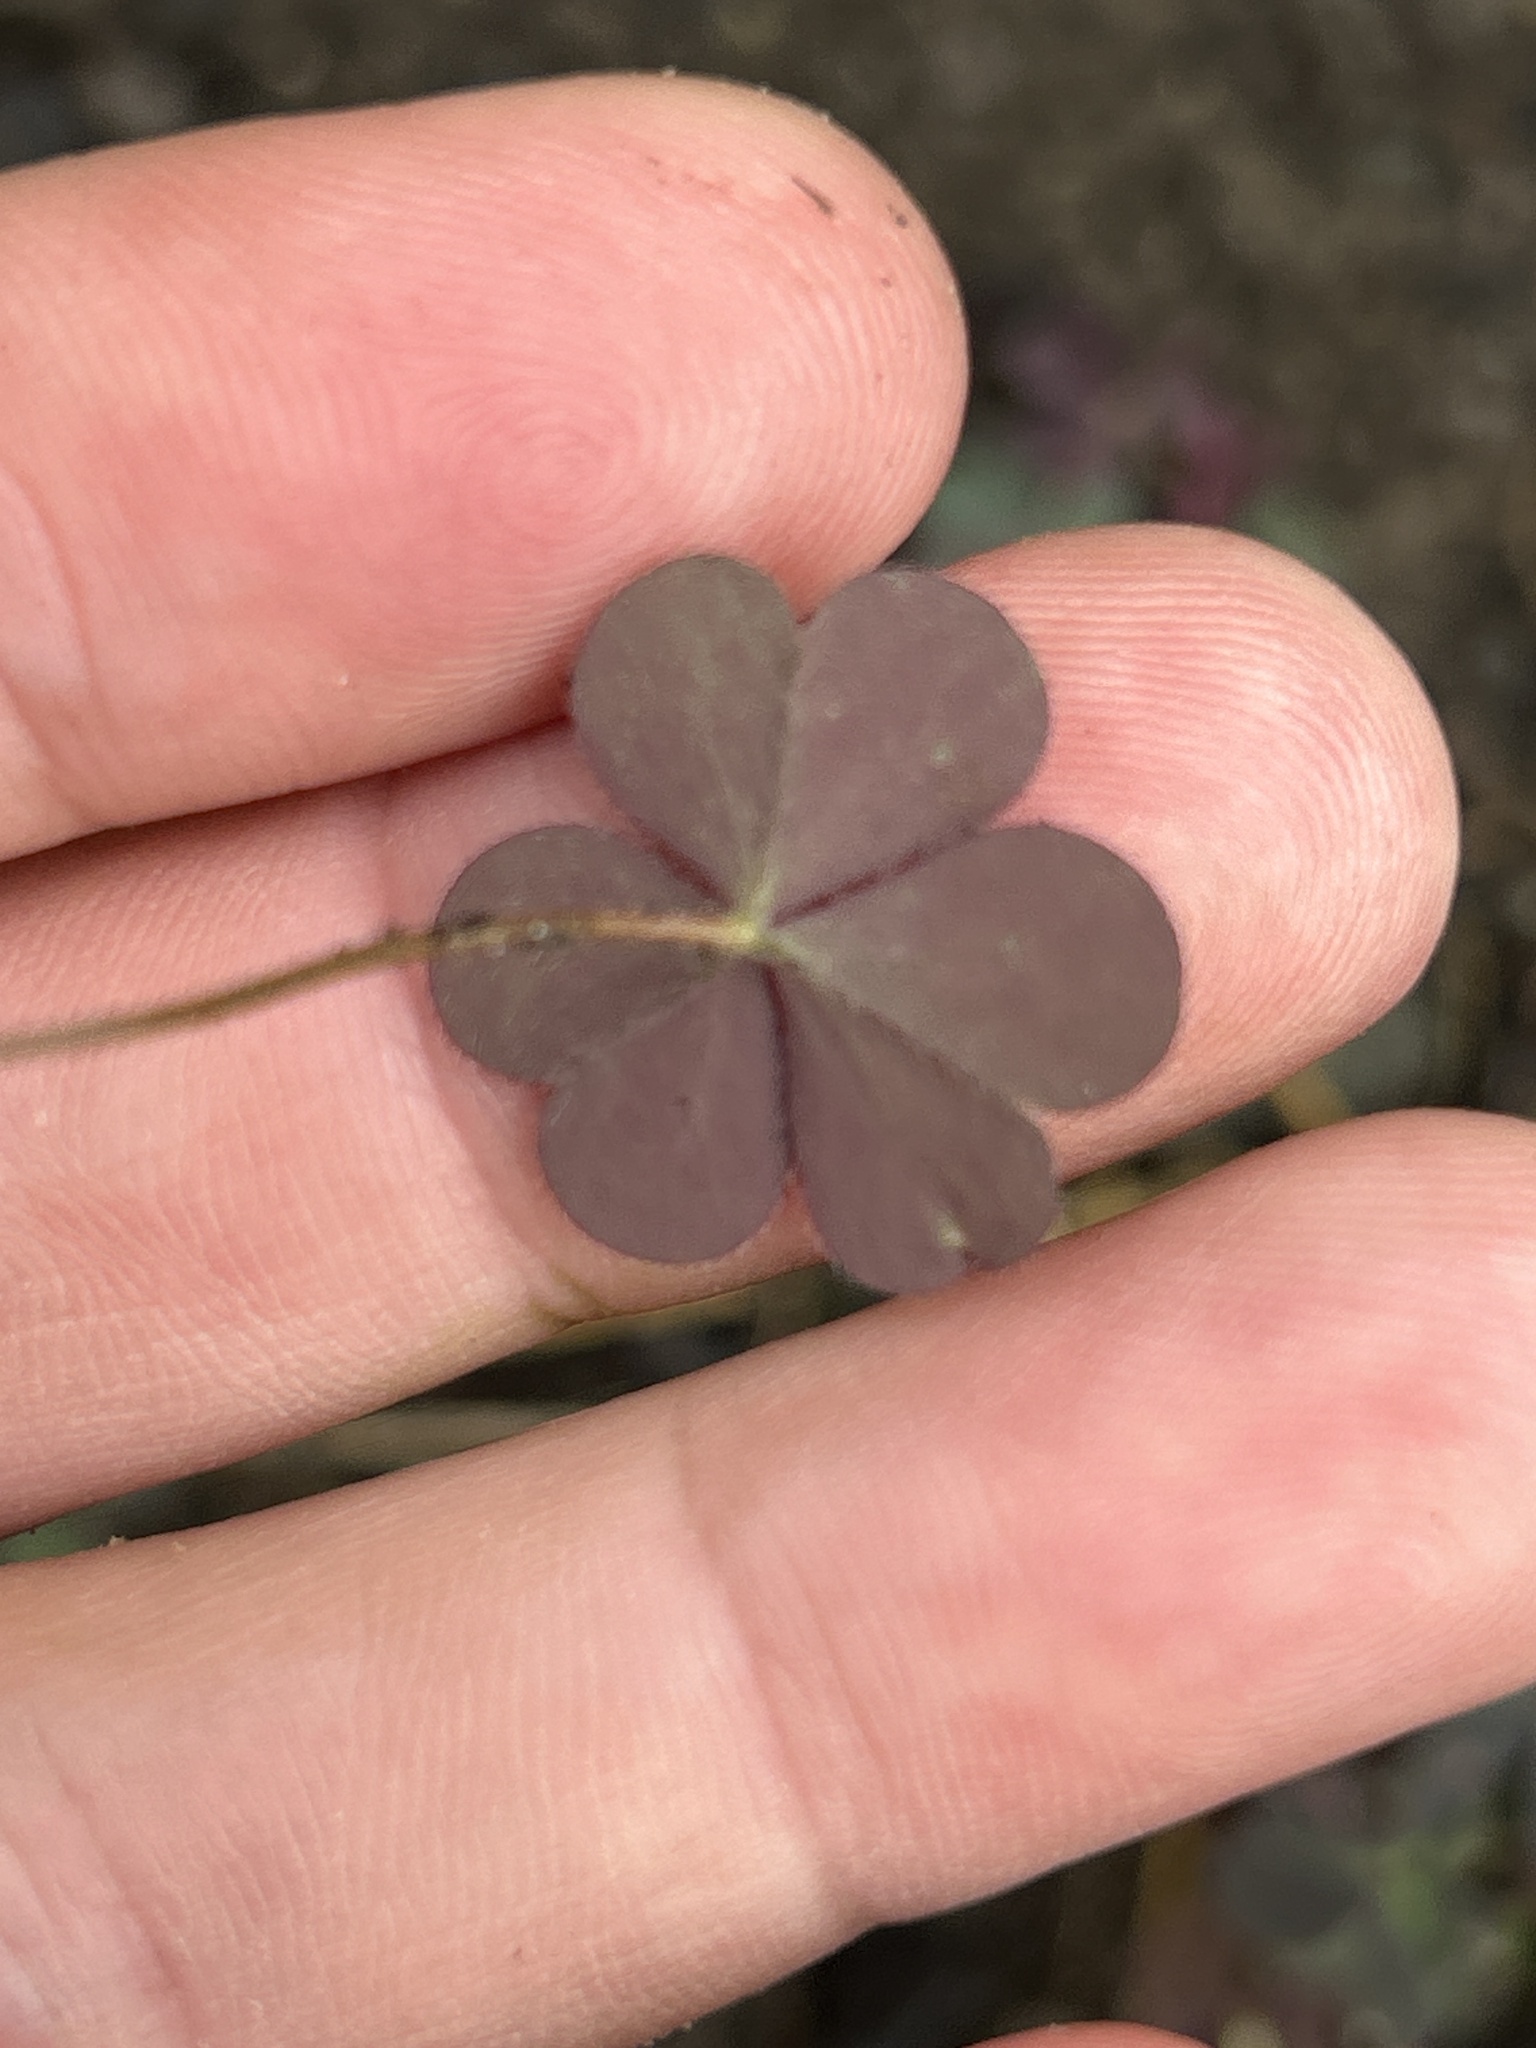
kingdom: Plantae
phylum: Tracheophyta
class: Magnoliopsida
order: Oxalidales
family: Oxalidaceae
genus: Oxalis
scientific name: Oxalis corniculata
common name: Procumbent yellow-sorrel
